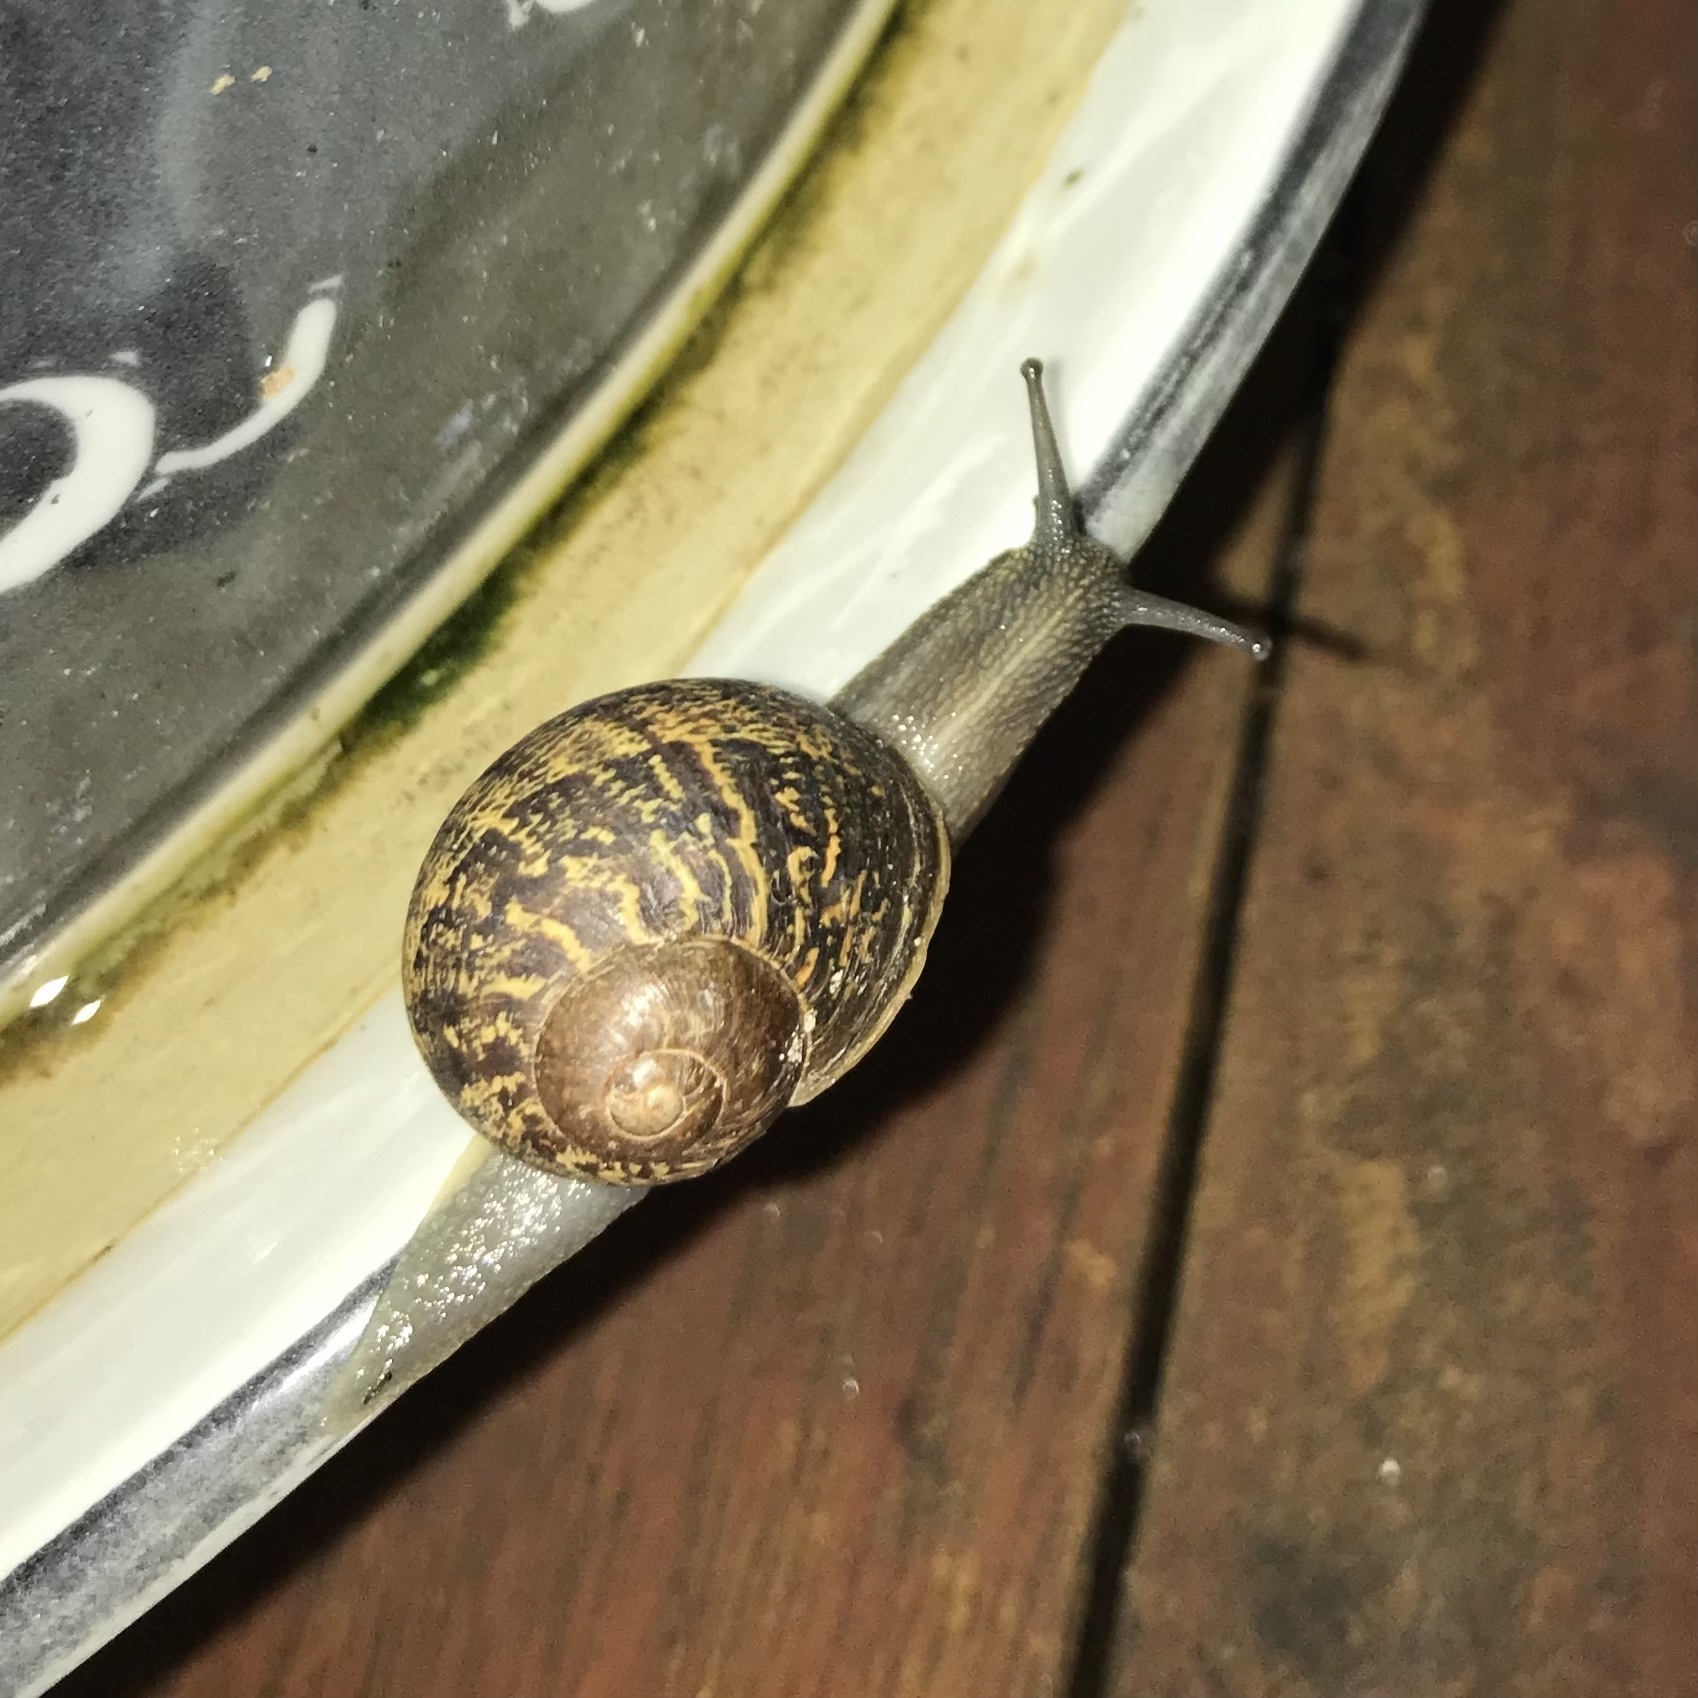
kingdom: Animalia
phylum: Mollusca
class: Gastropoda
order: Stylommatophora
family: Helicidae
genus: Cornu
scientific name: Cornu aspersum
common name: Brown garden snail
